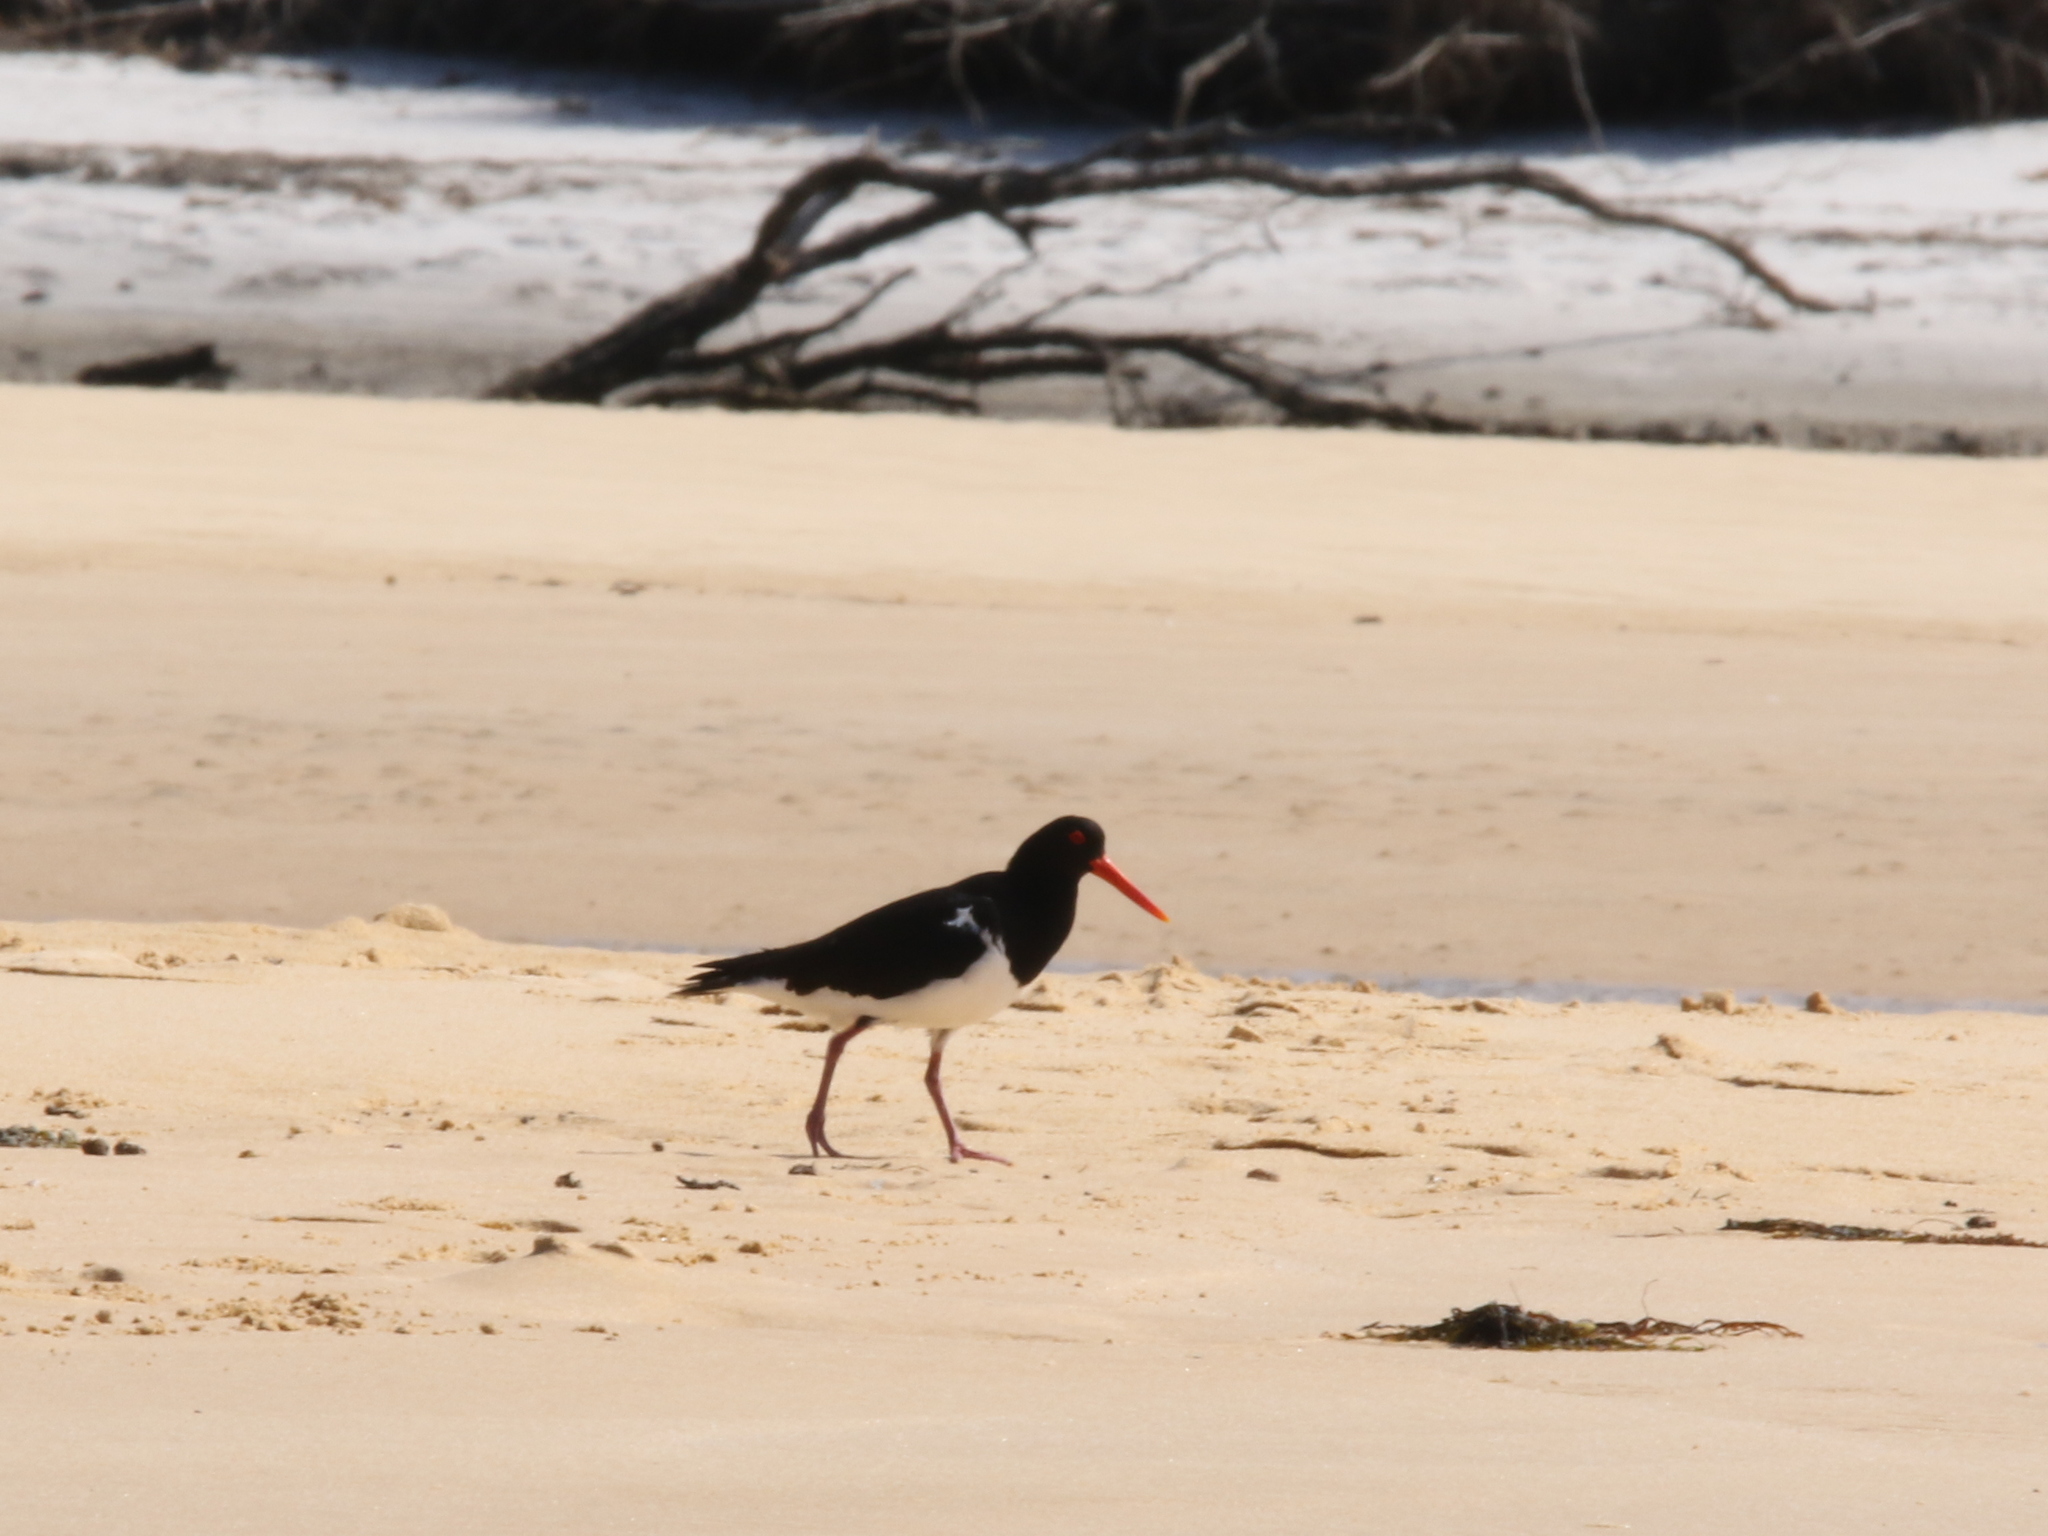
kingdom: Animalia
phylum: Chordata
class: Aves
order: Charadriiformes
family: Haematopodidae
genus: Haematopus
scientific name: Haematopus longirostris
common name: Pied oystercatcher
